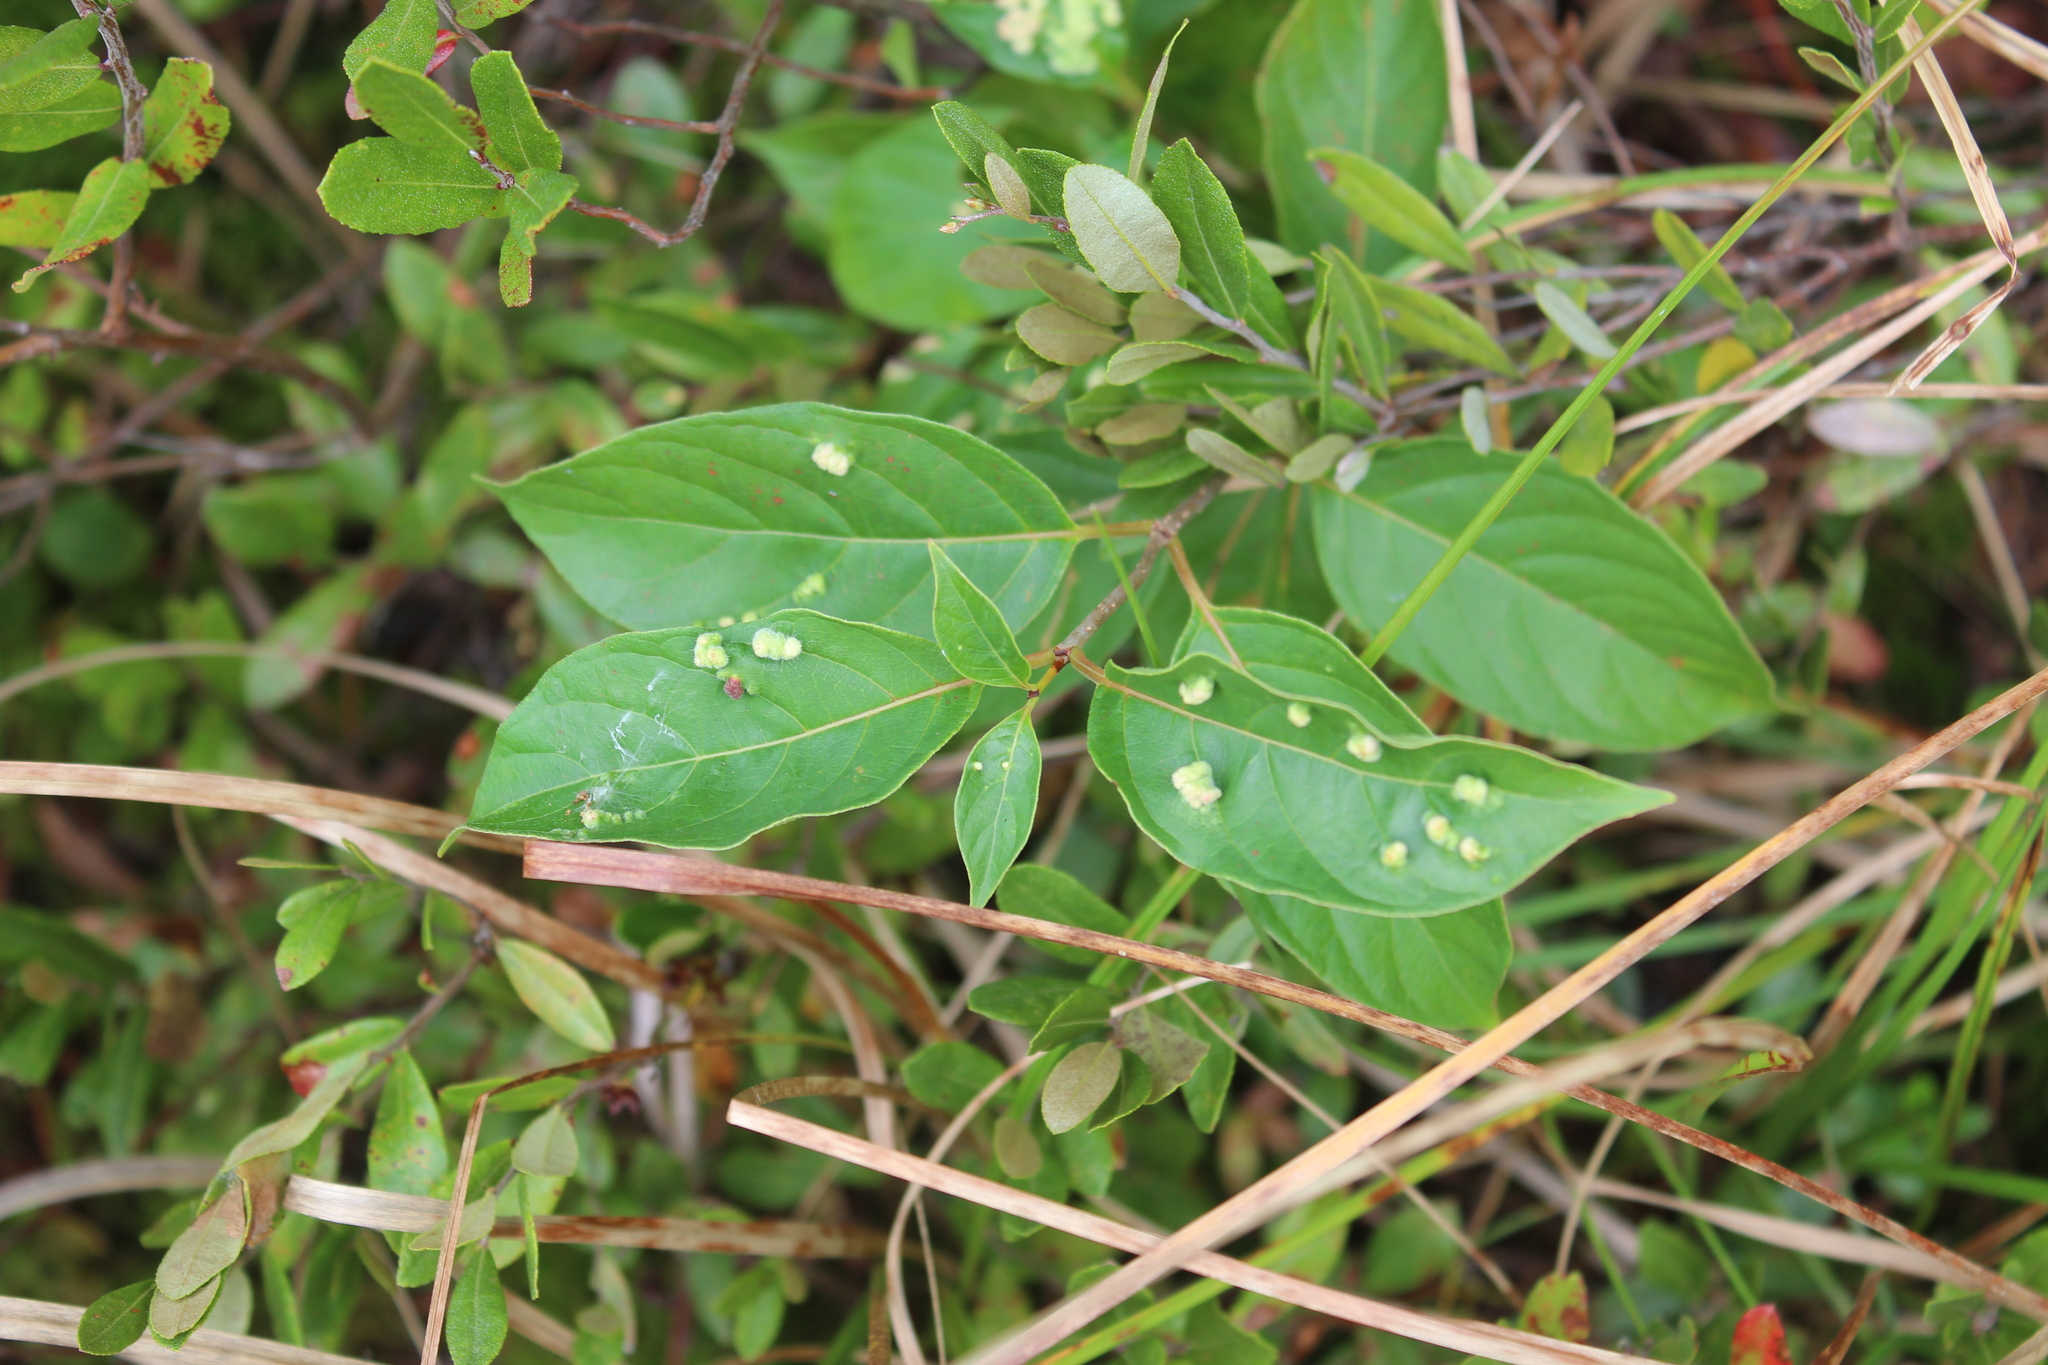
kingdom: Animalia
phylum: Arthropoda
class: Arachnida
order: Trombidiformes
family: Eriophyidae
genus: Aceria
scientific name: Aceria
